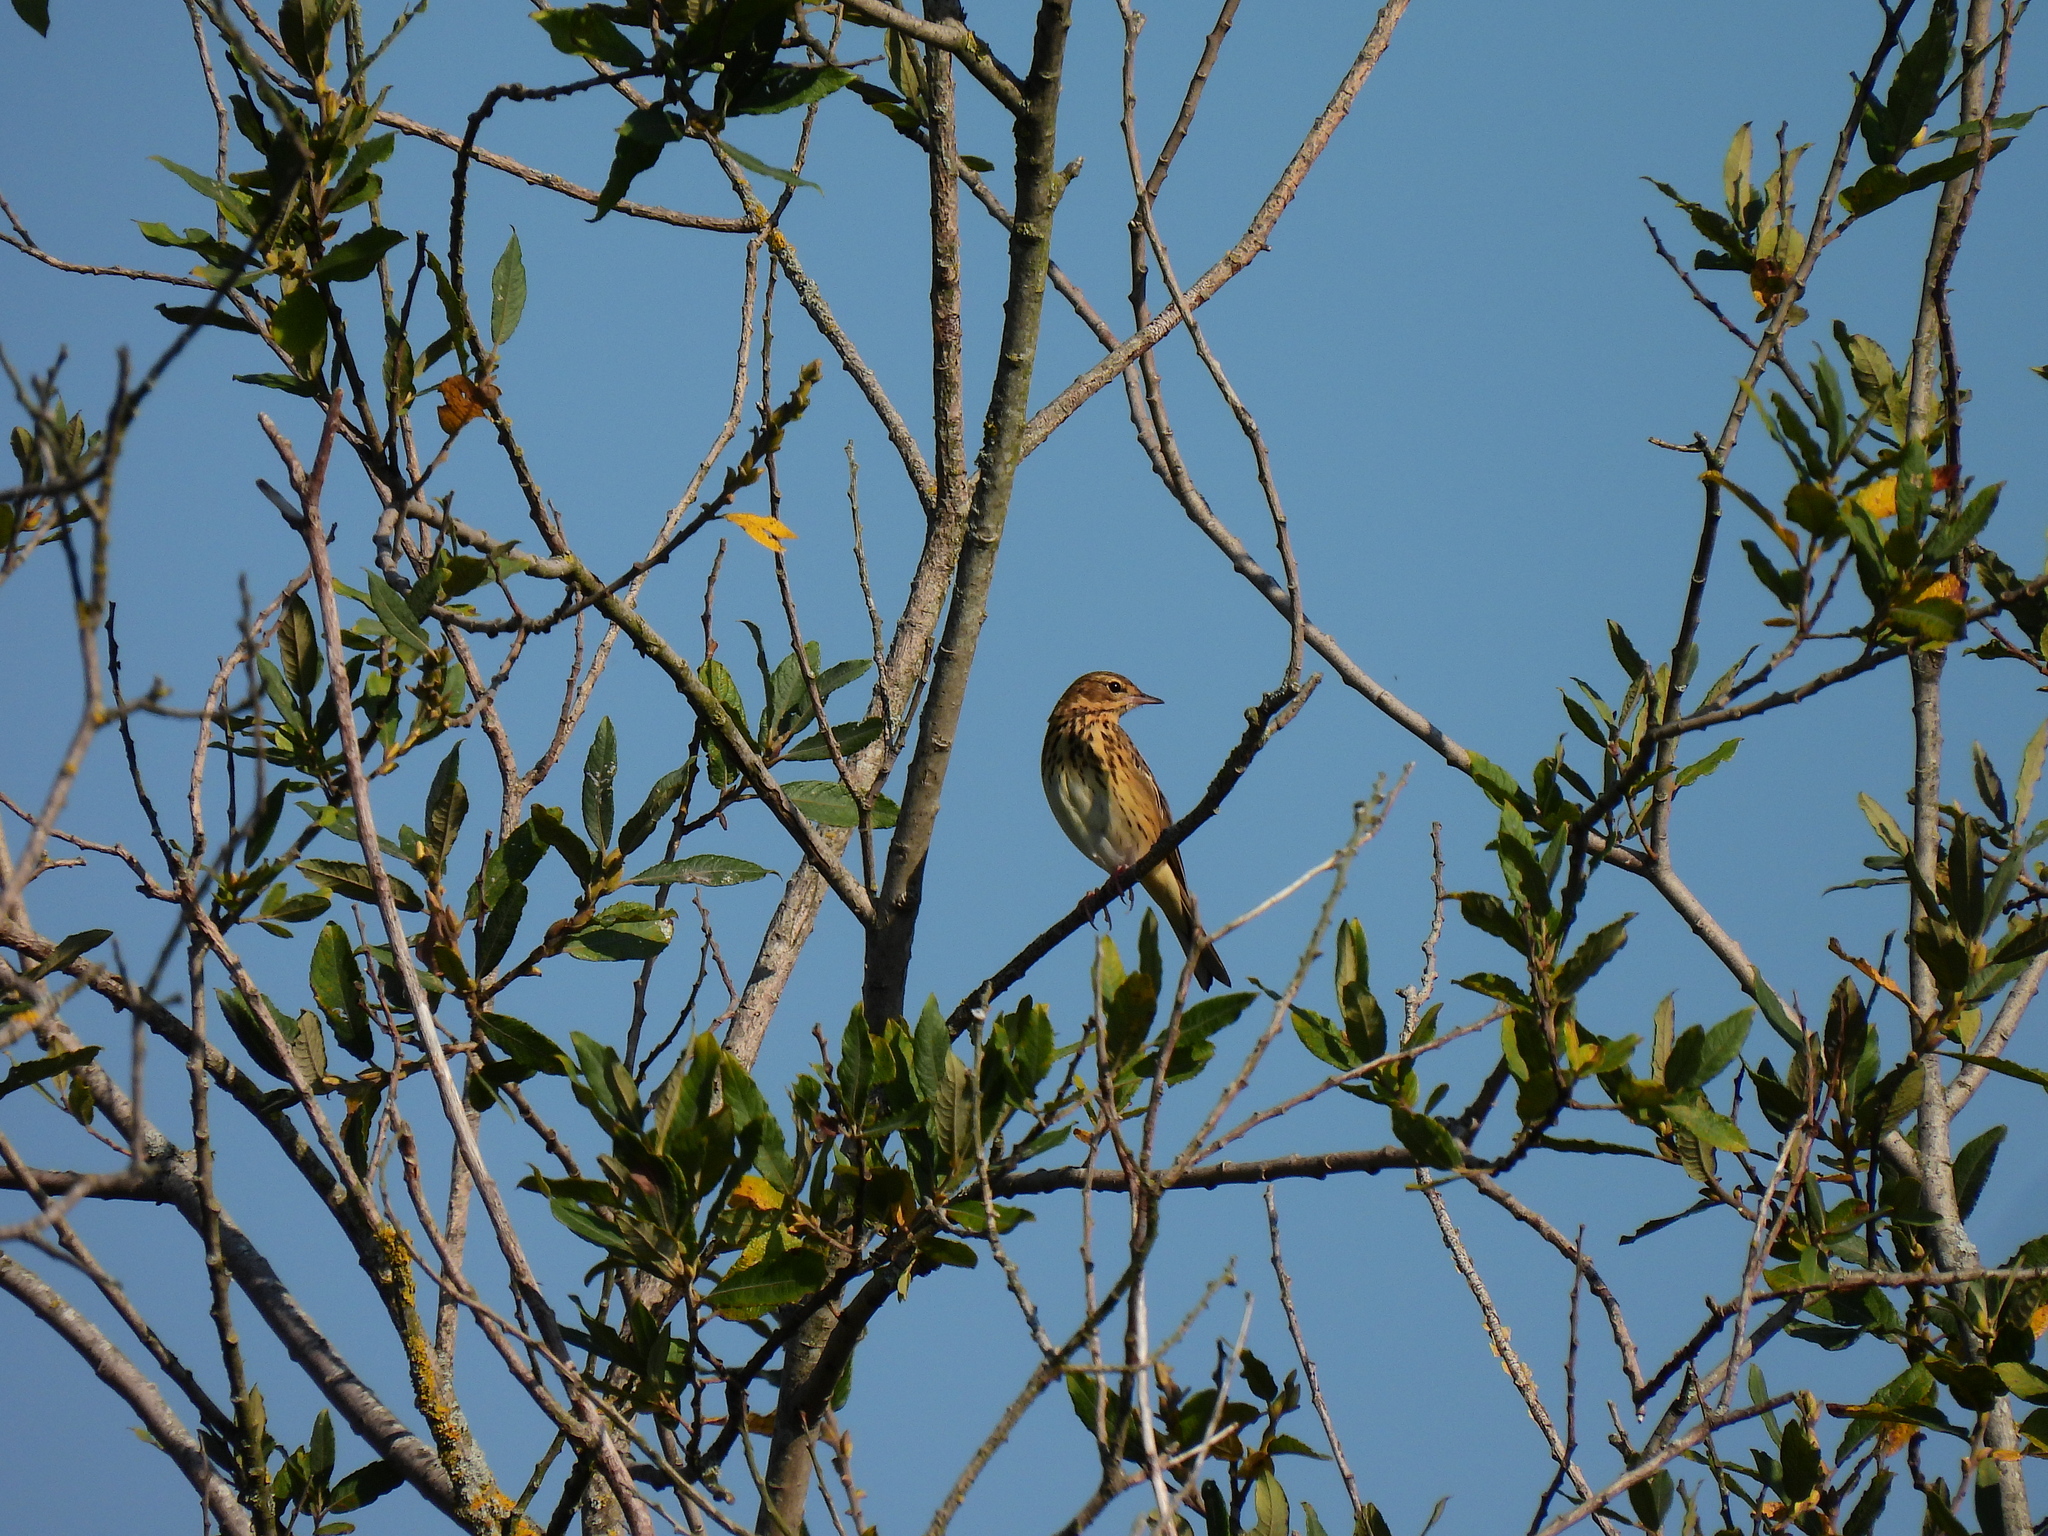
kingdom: Animalia
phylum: Chordata
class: Aves
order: Passeriformes
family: Motacillidae
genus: Anthus
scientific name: Anthus trivialis
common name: Tree pipit
